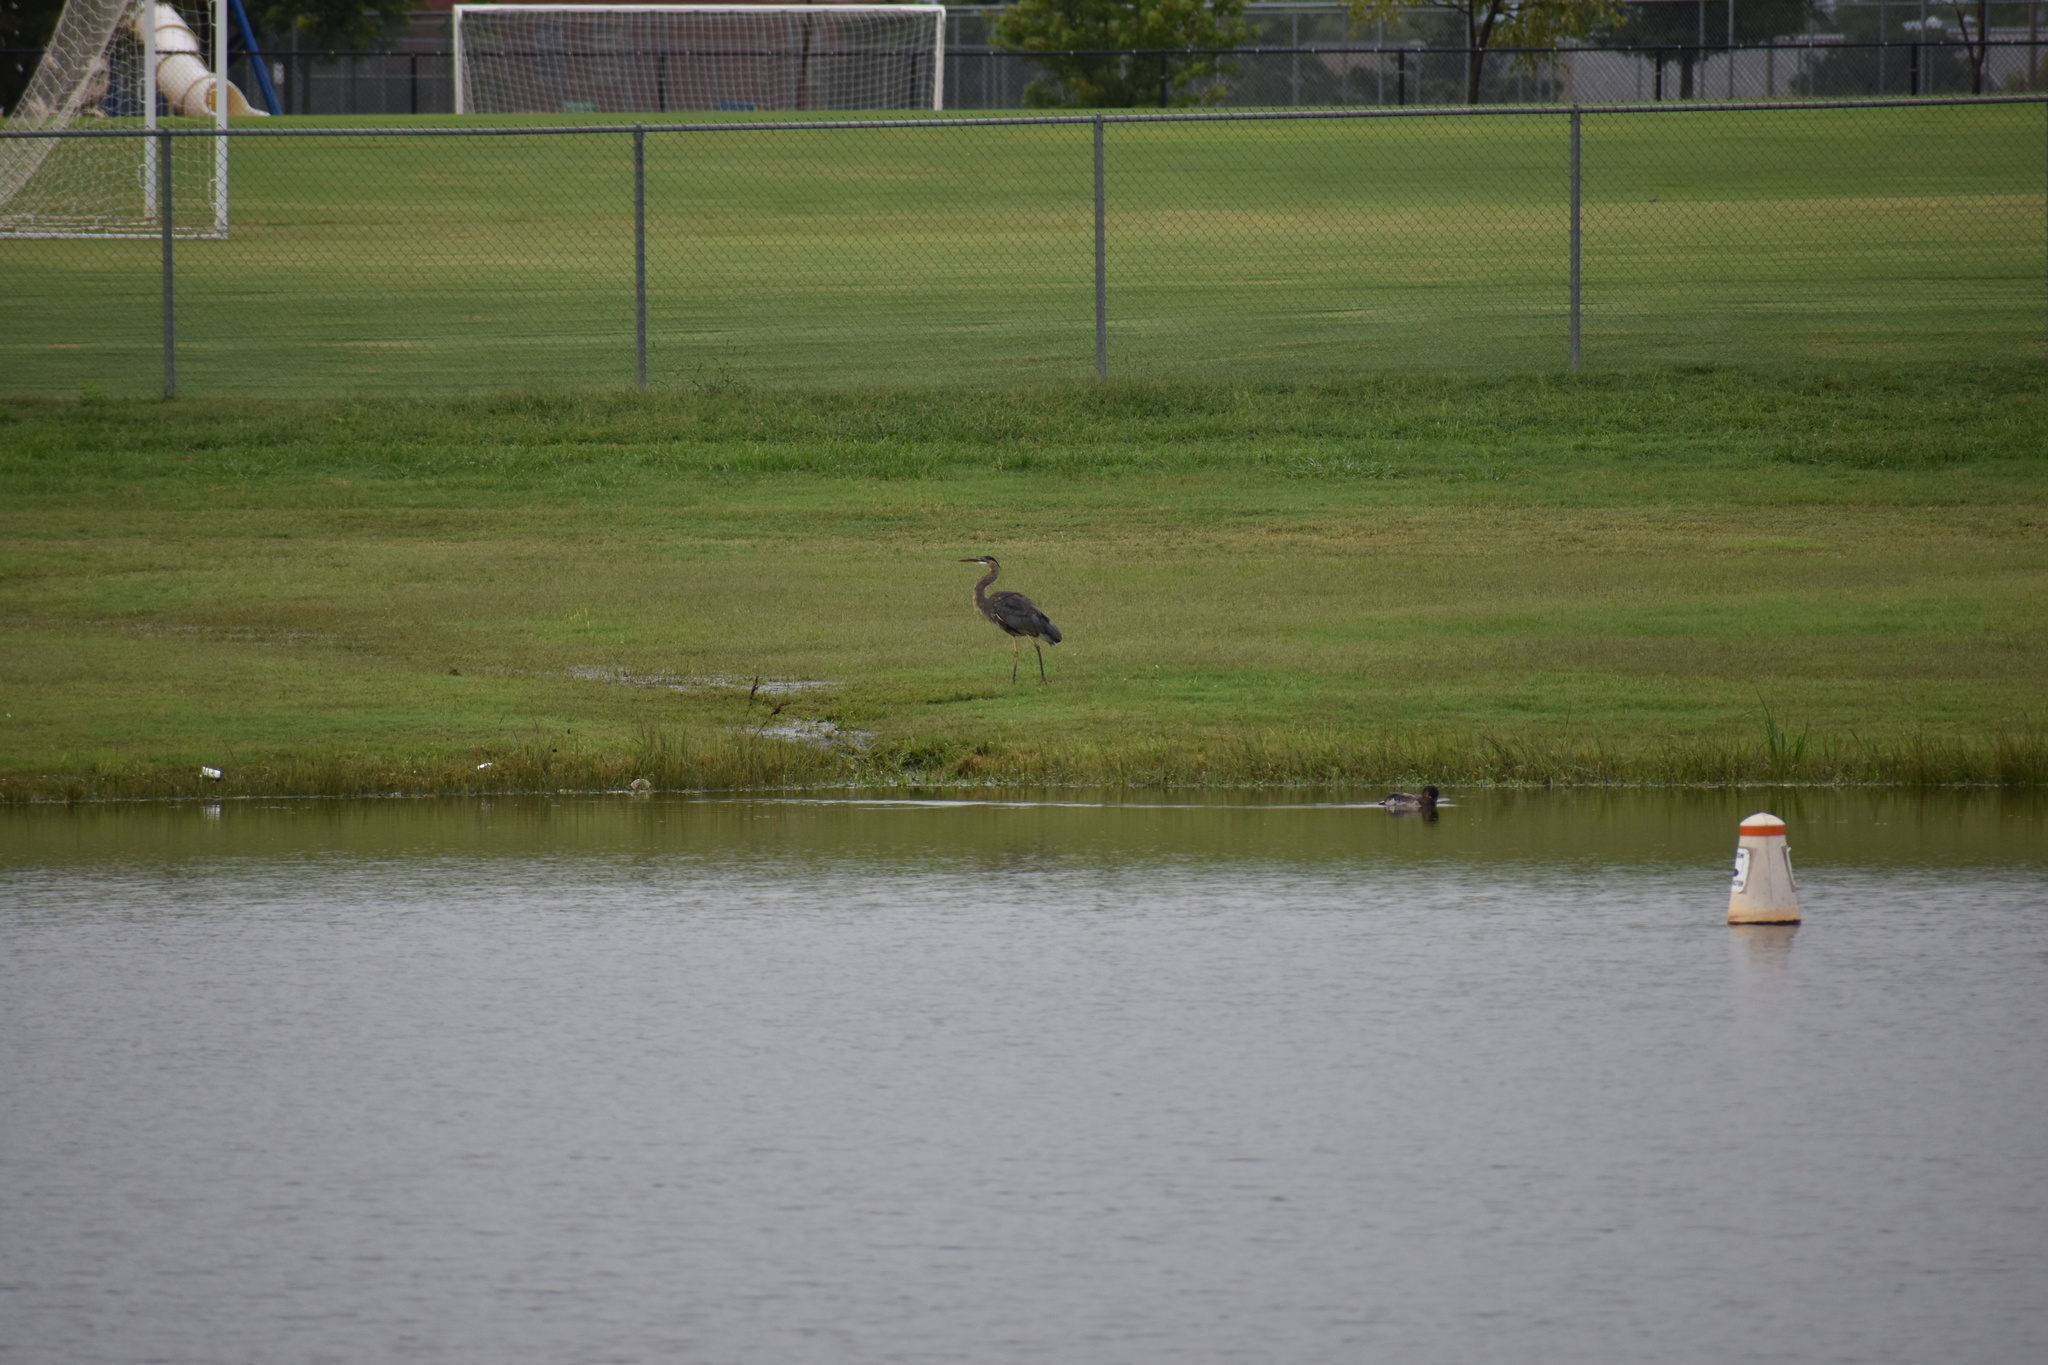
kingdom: Animalia
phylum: Chordata
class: Aves
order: Pelecaniformes
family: Ardeidae
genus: Ardea
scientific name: Ardea herodias
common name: Great blue heron
